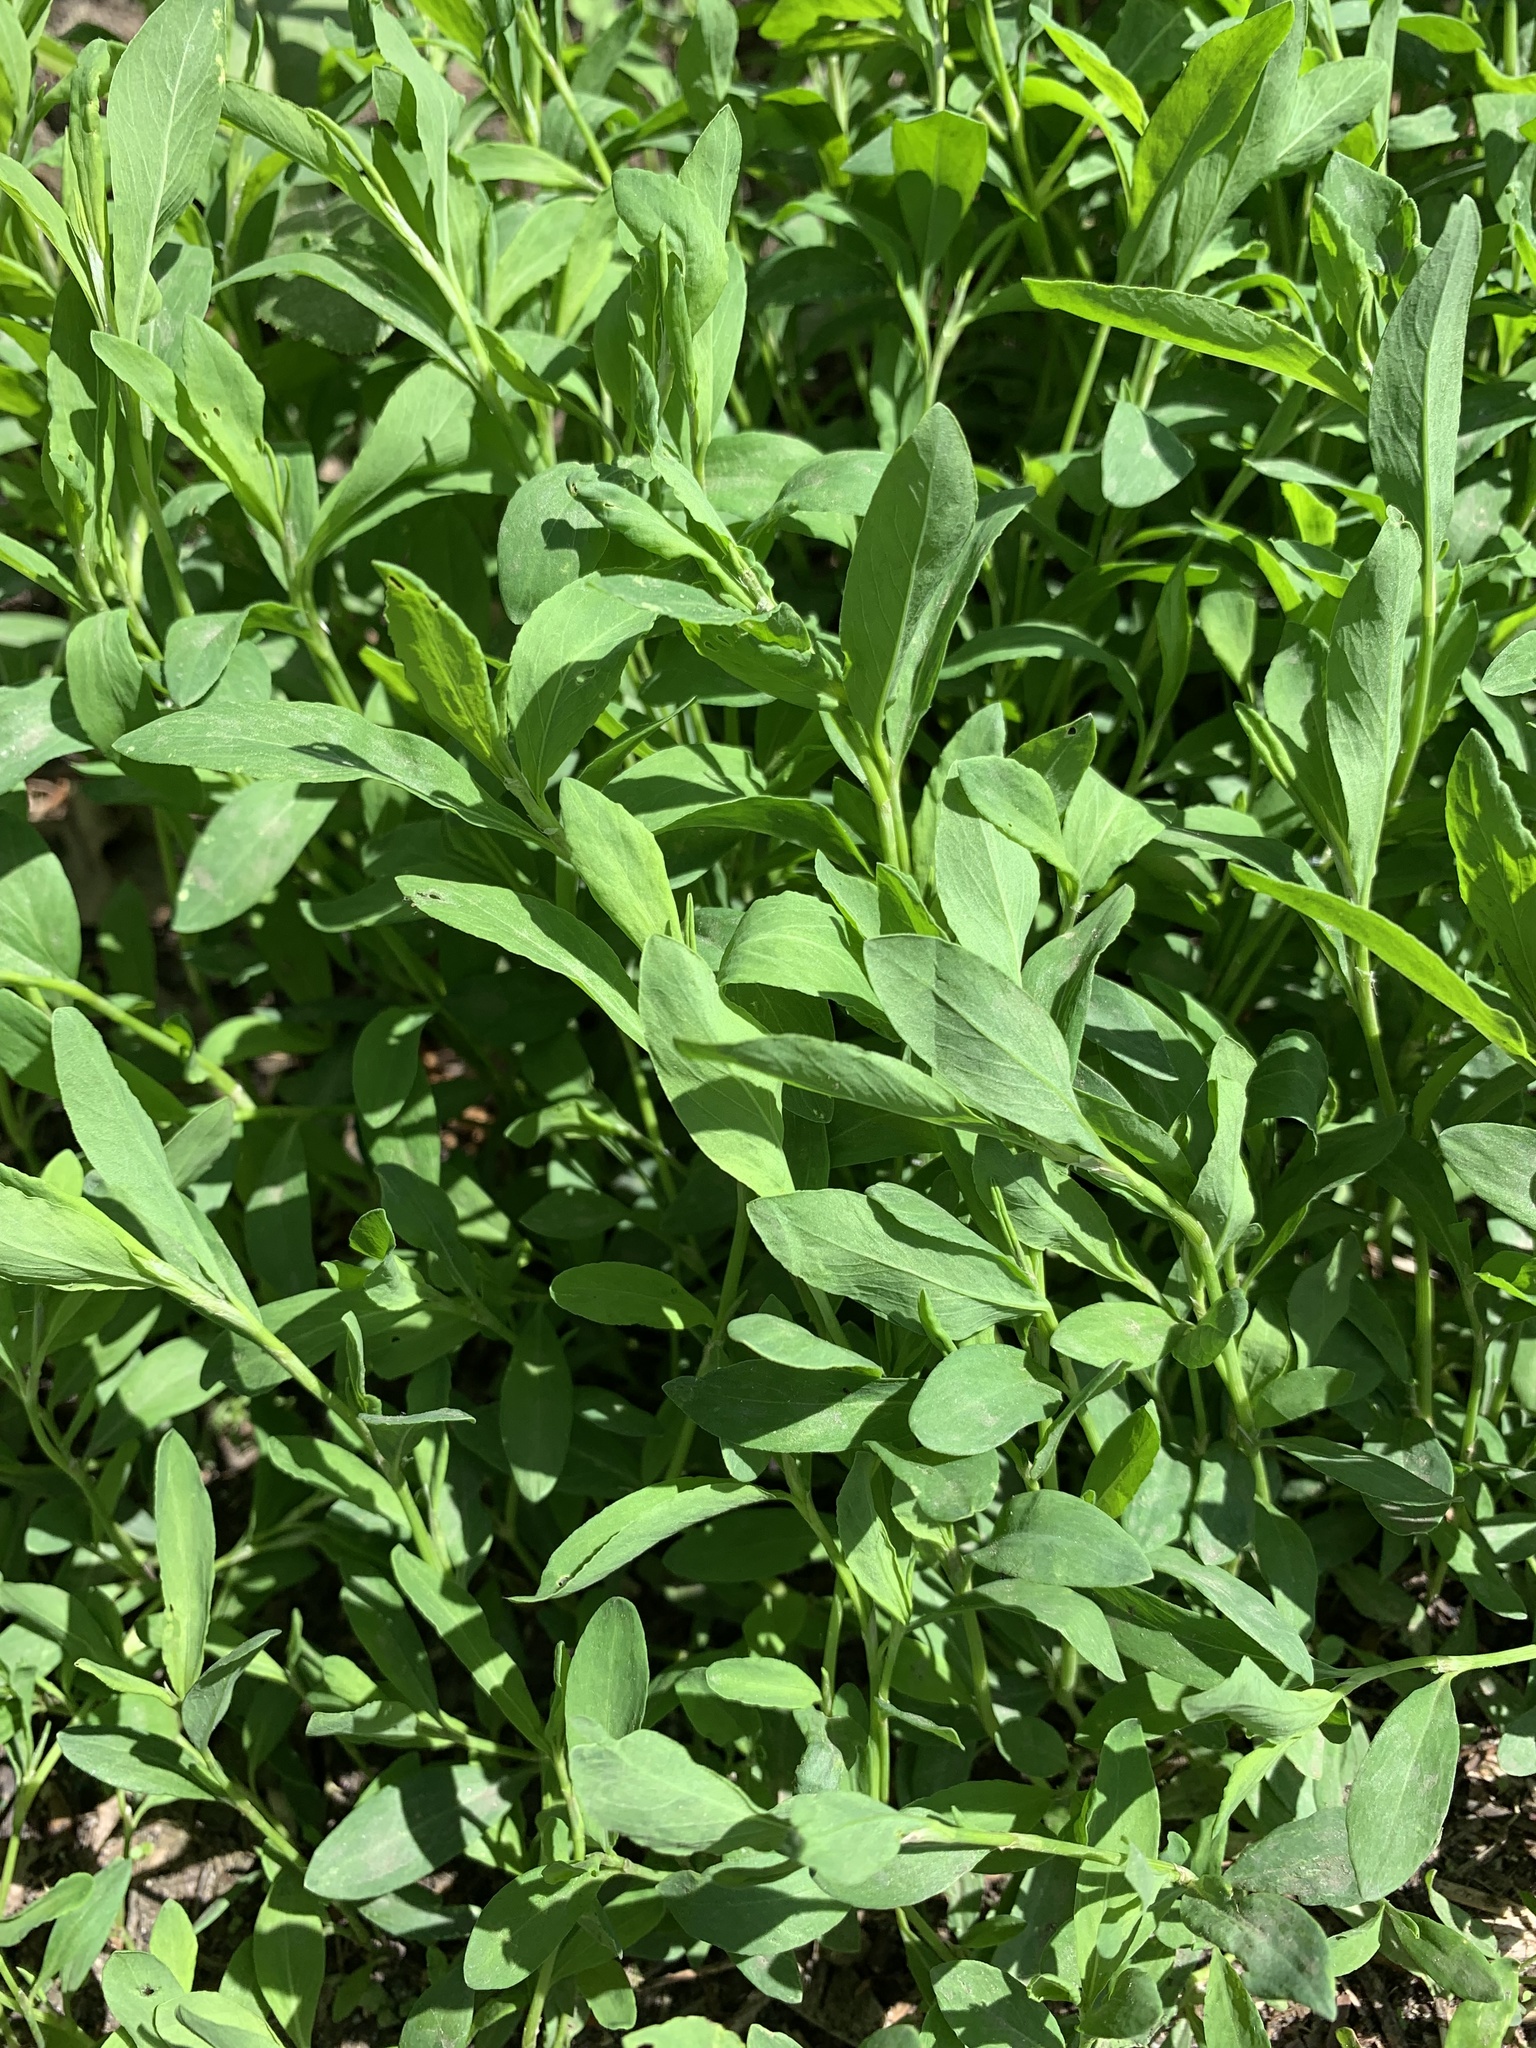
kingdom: Plantae
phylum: Tracheophyta
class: Magnoliopsida
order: Caryophyllales
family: Polygonaceae
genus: Polygonum
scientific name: Polygonum
